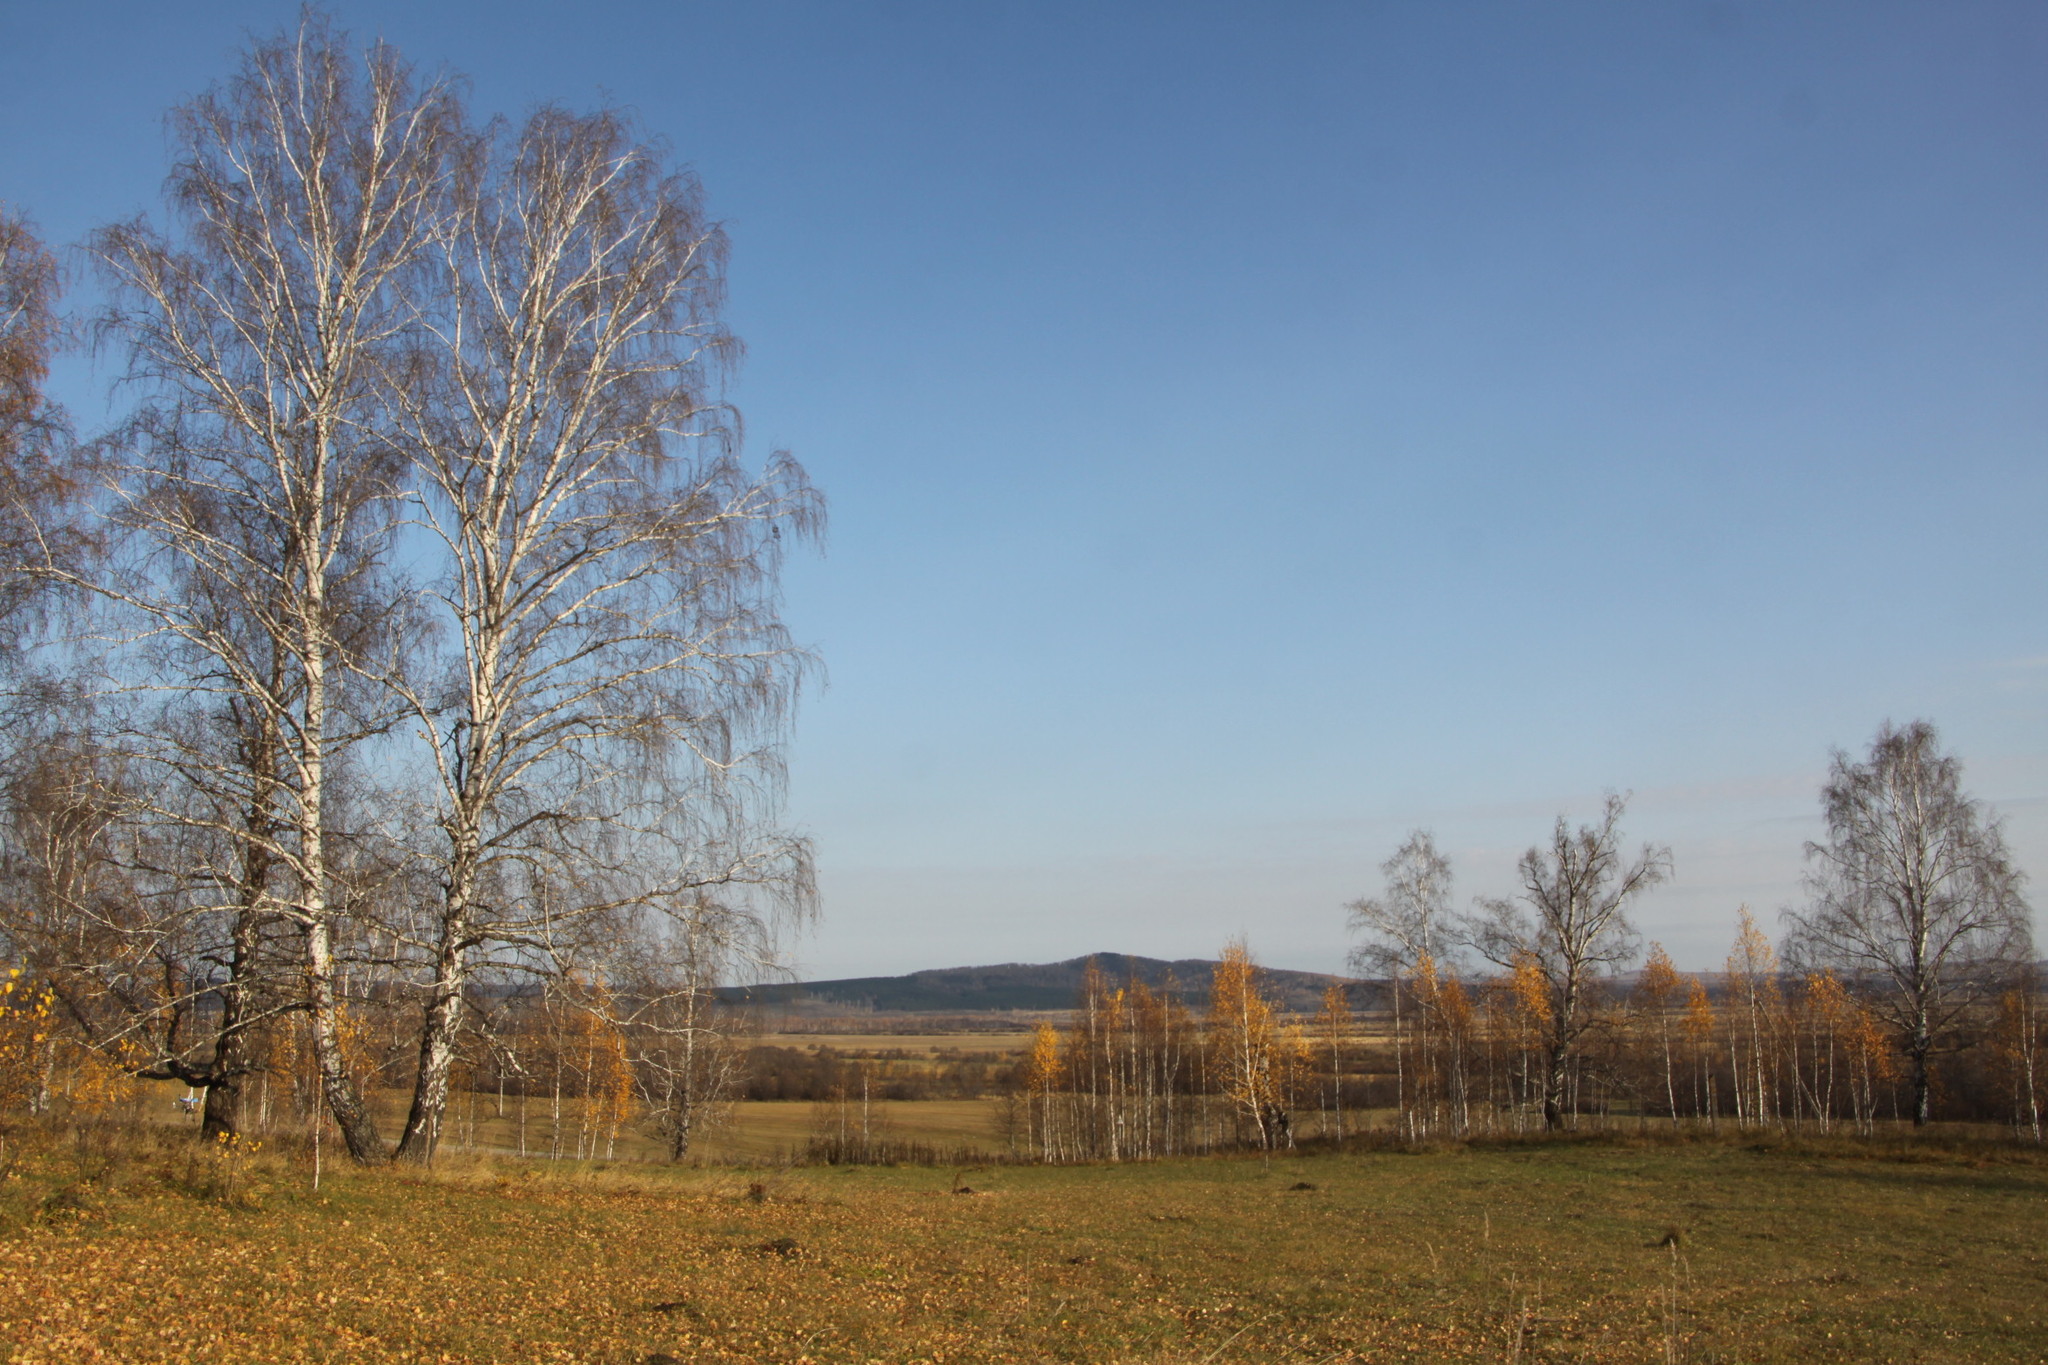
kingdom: Plantae
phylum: Tracheophyta
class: Magnoliopsida
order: Fagales
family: Betulaceae
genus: Betula
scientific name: Betula pendula
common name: Silver birch
